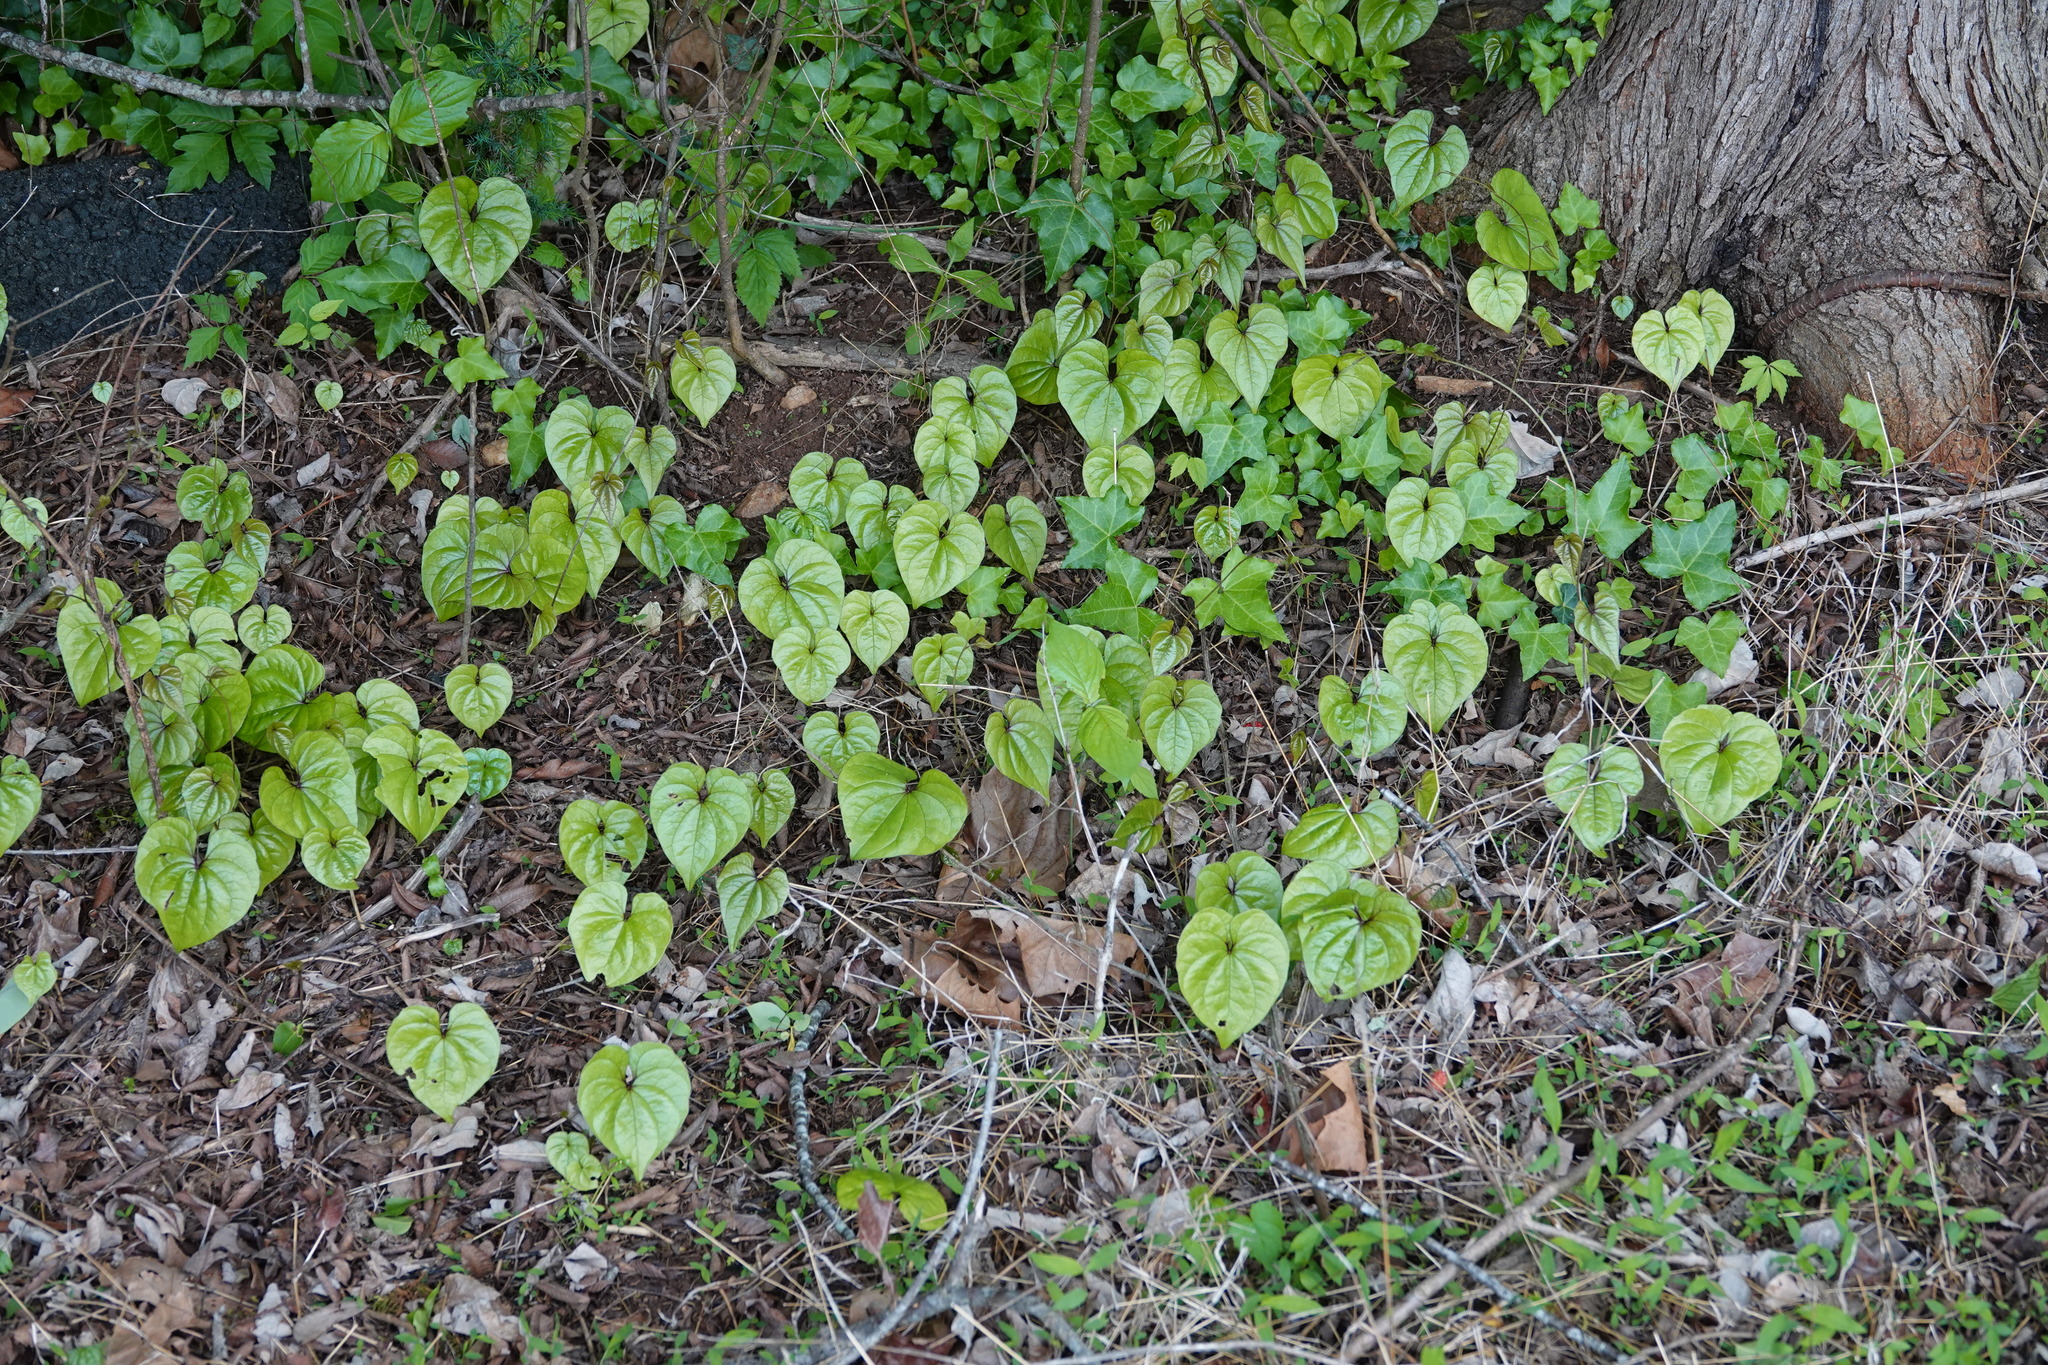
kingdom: Plantae
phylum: Tracheophyta
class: Liliopsida
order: Dioscoreales
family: Dioscoreaceae
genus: Dioscorea
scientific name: Dioscorea polystachya
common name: Chinese yam
